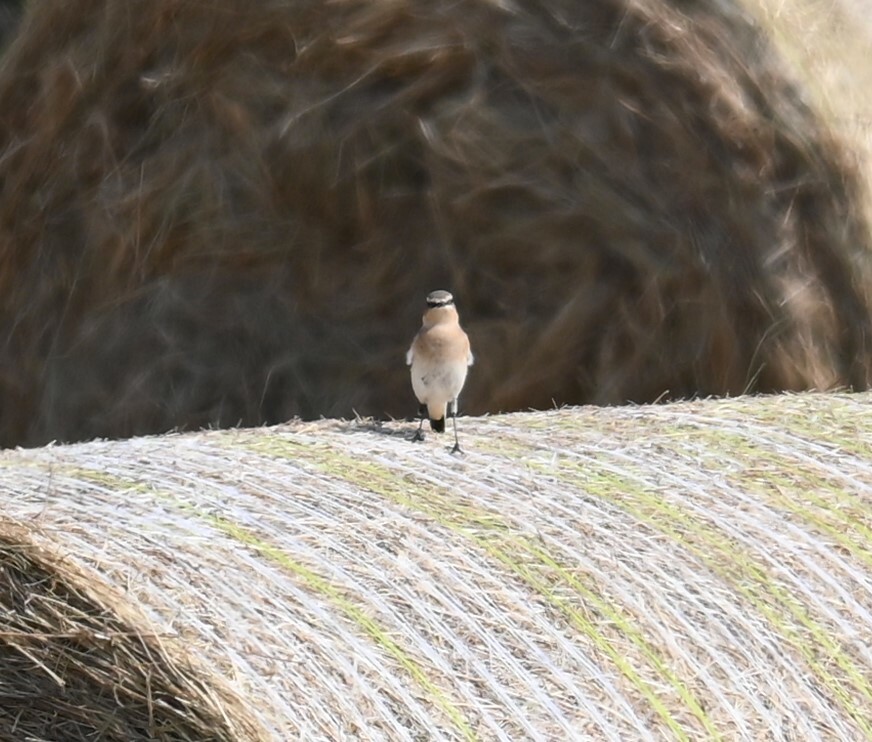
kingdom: Animalia
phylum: Chordata
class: Aves
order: Passeriformes
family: Muscicapidae
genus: Oenanthe
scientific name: Oenanthe oenanthe
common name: Northern wheatear
